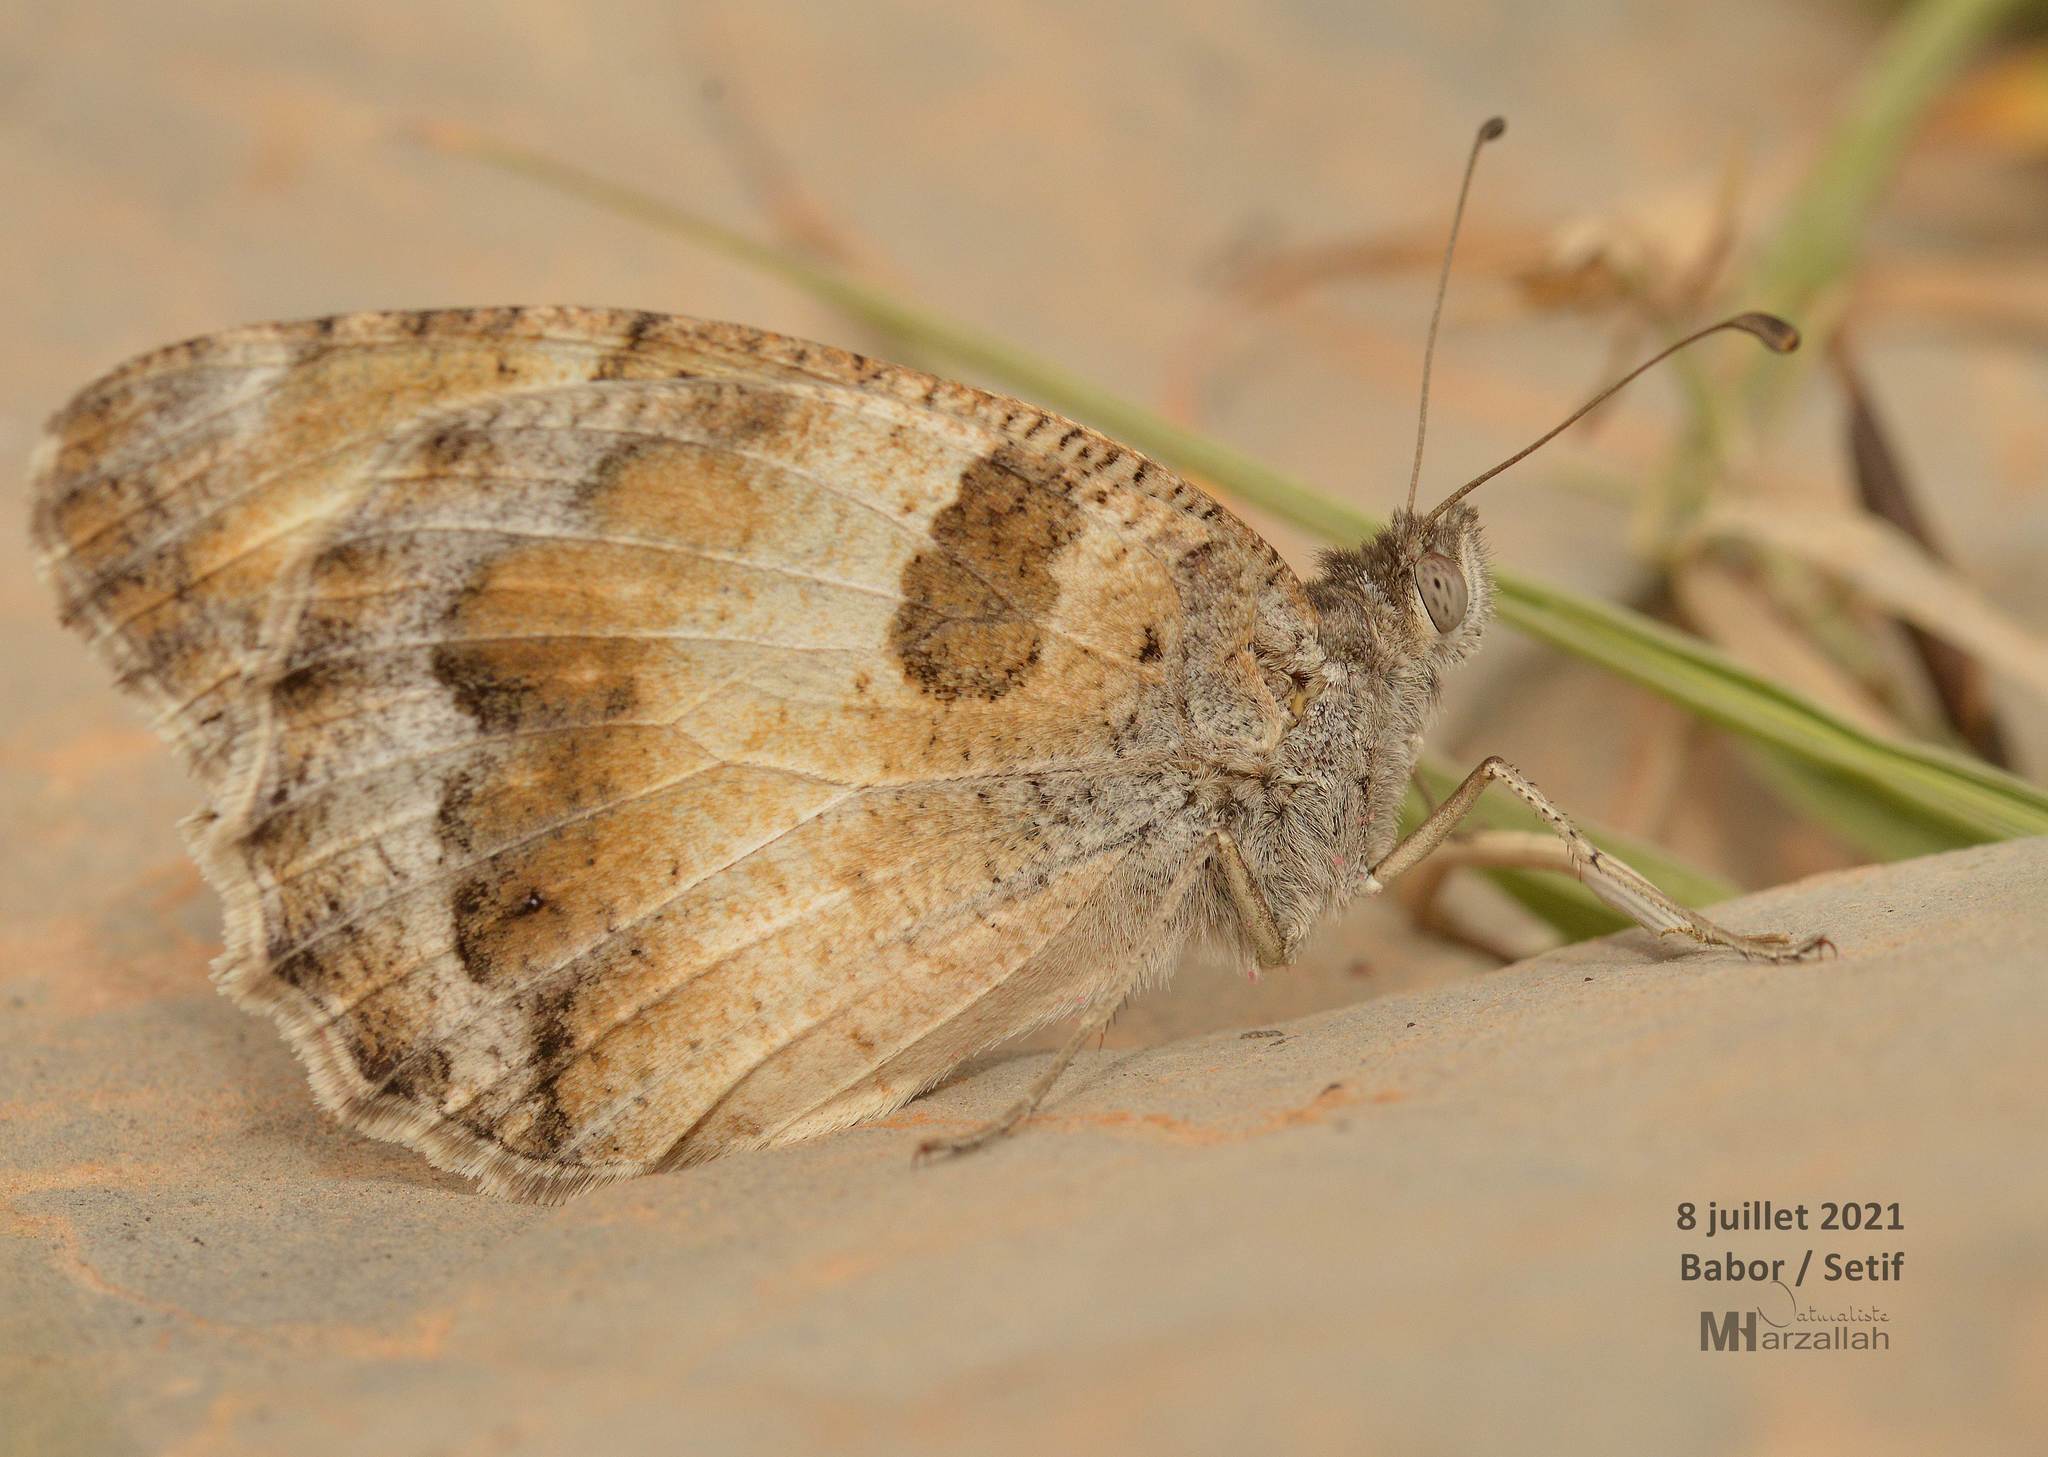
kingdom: Animalia
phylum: Arthropoda
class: Insecta
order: Lepidoptera
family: Nymphalidae
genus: Satyrus
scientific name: Satyrus briseis
